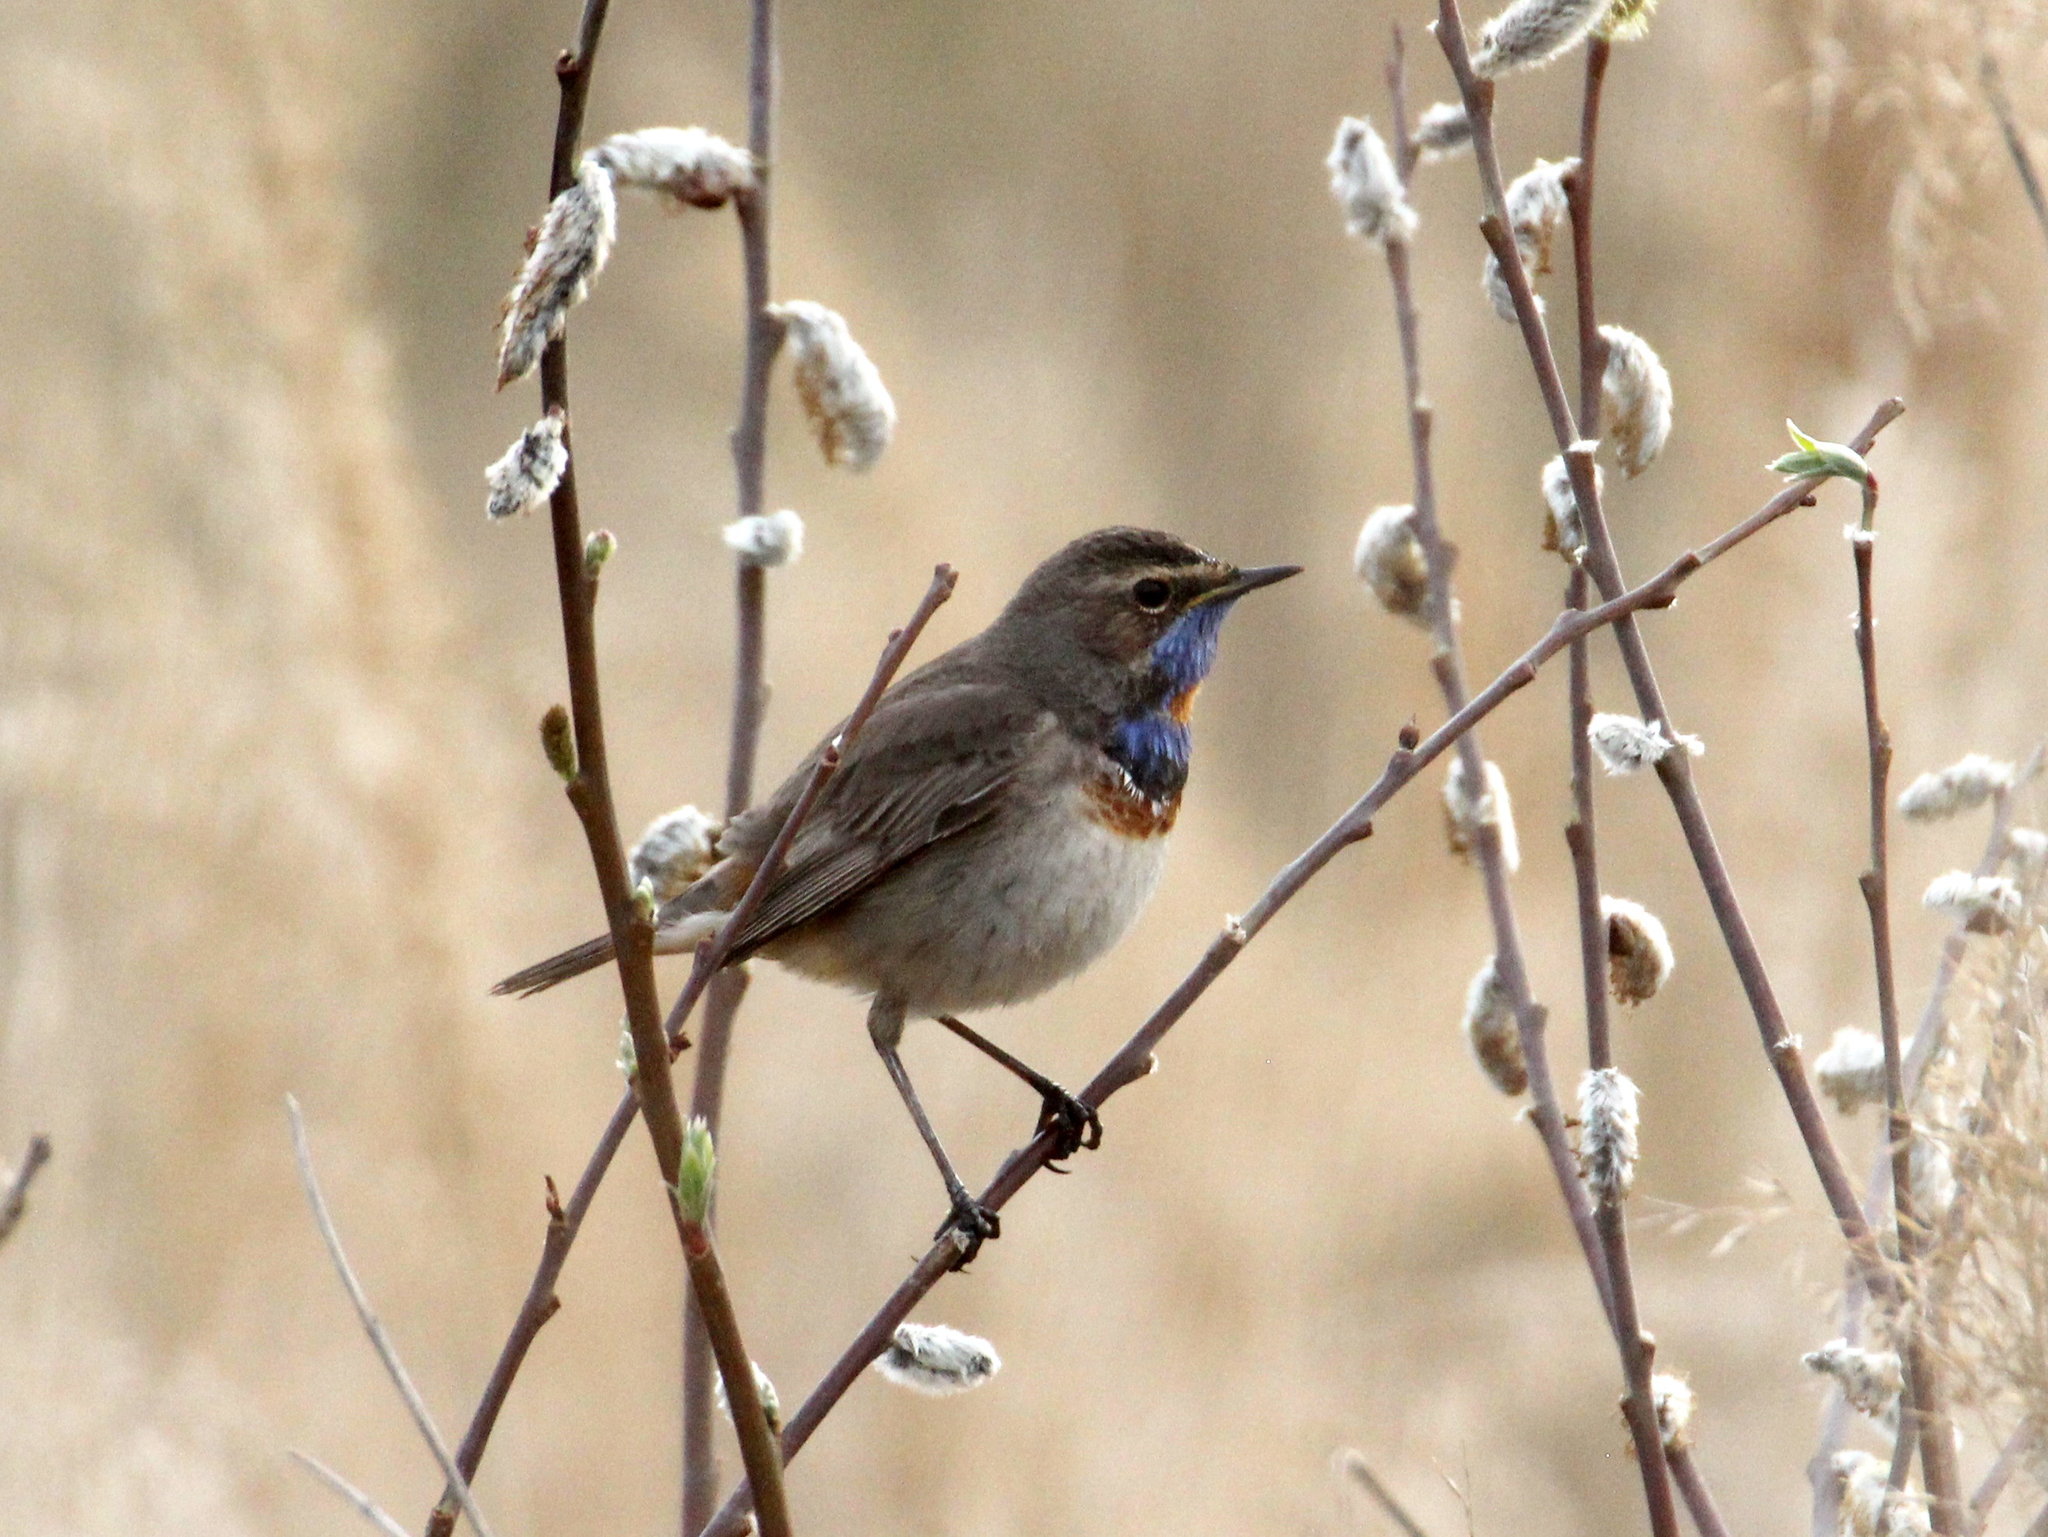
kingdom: Animalia
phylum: Chordata
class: Aves
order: Passeriformes
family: Muscicapidae
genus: Luscinia
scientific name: Luscinia svecica
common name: Bluethroat
